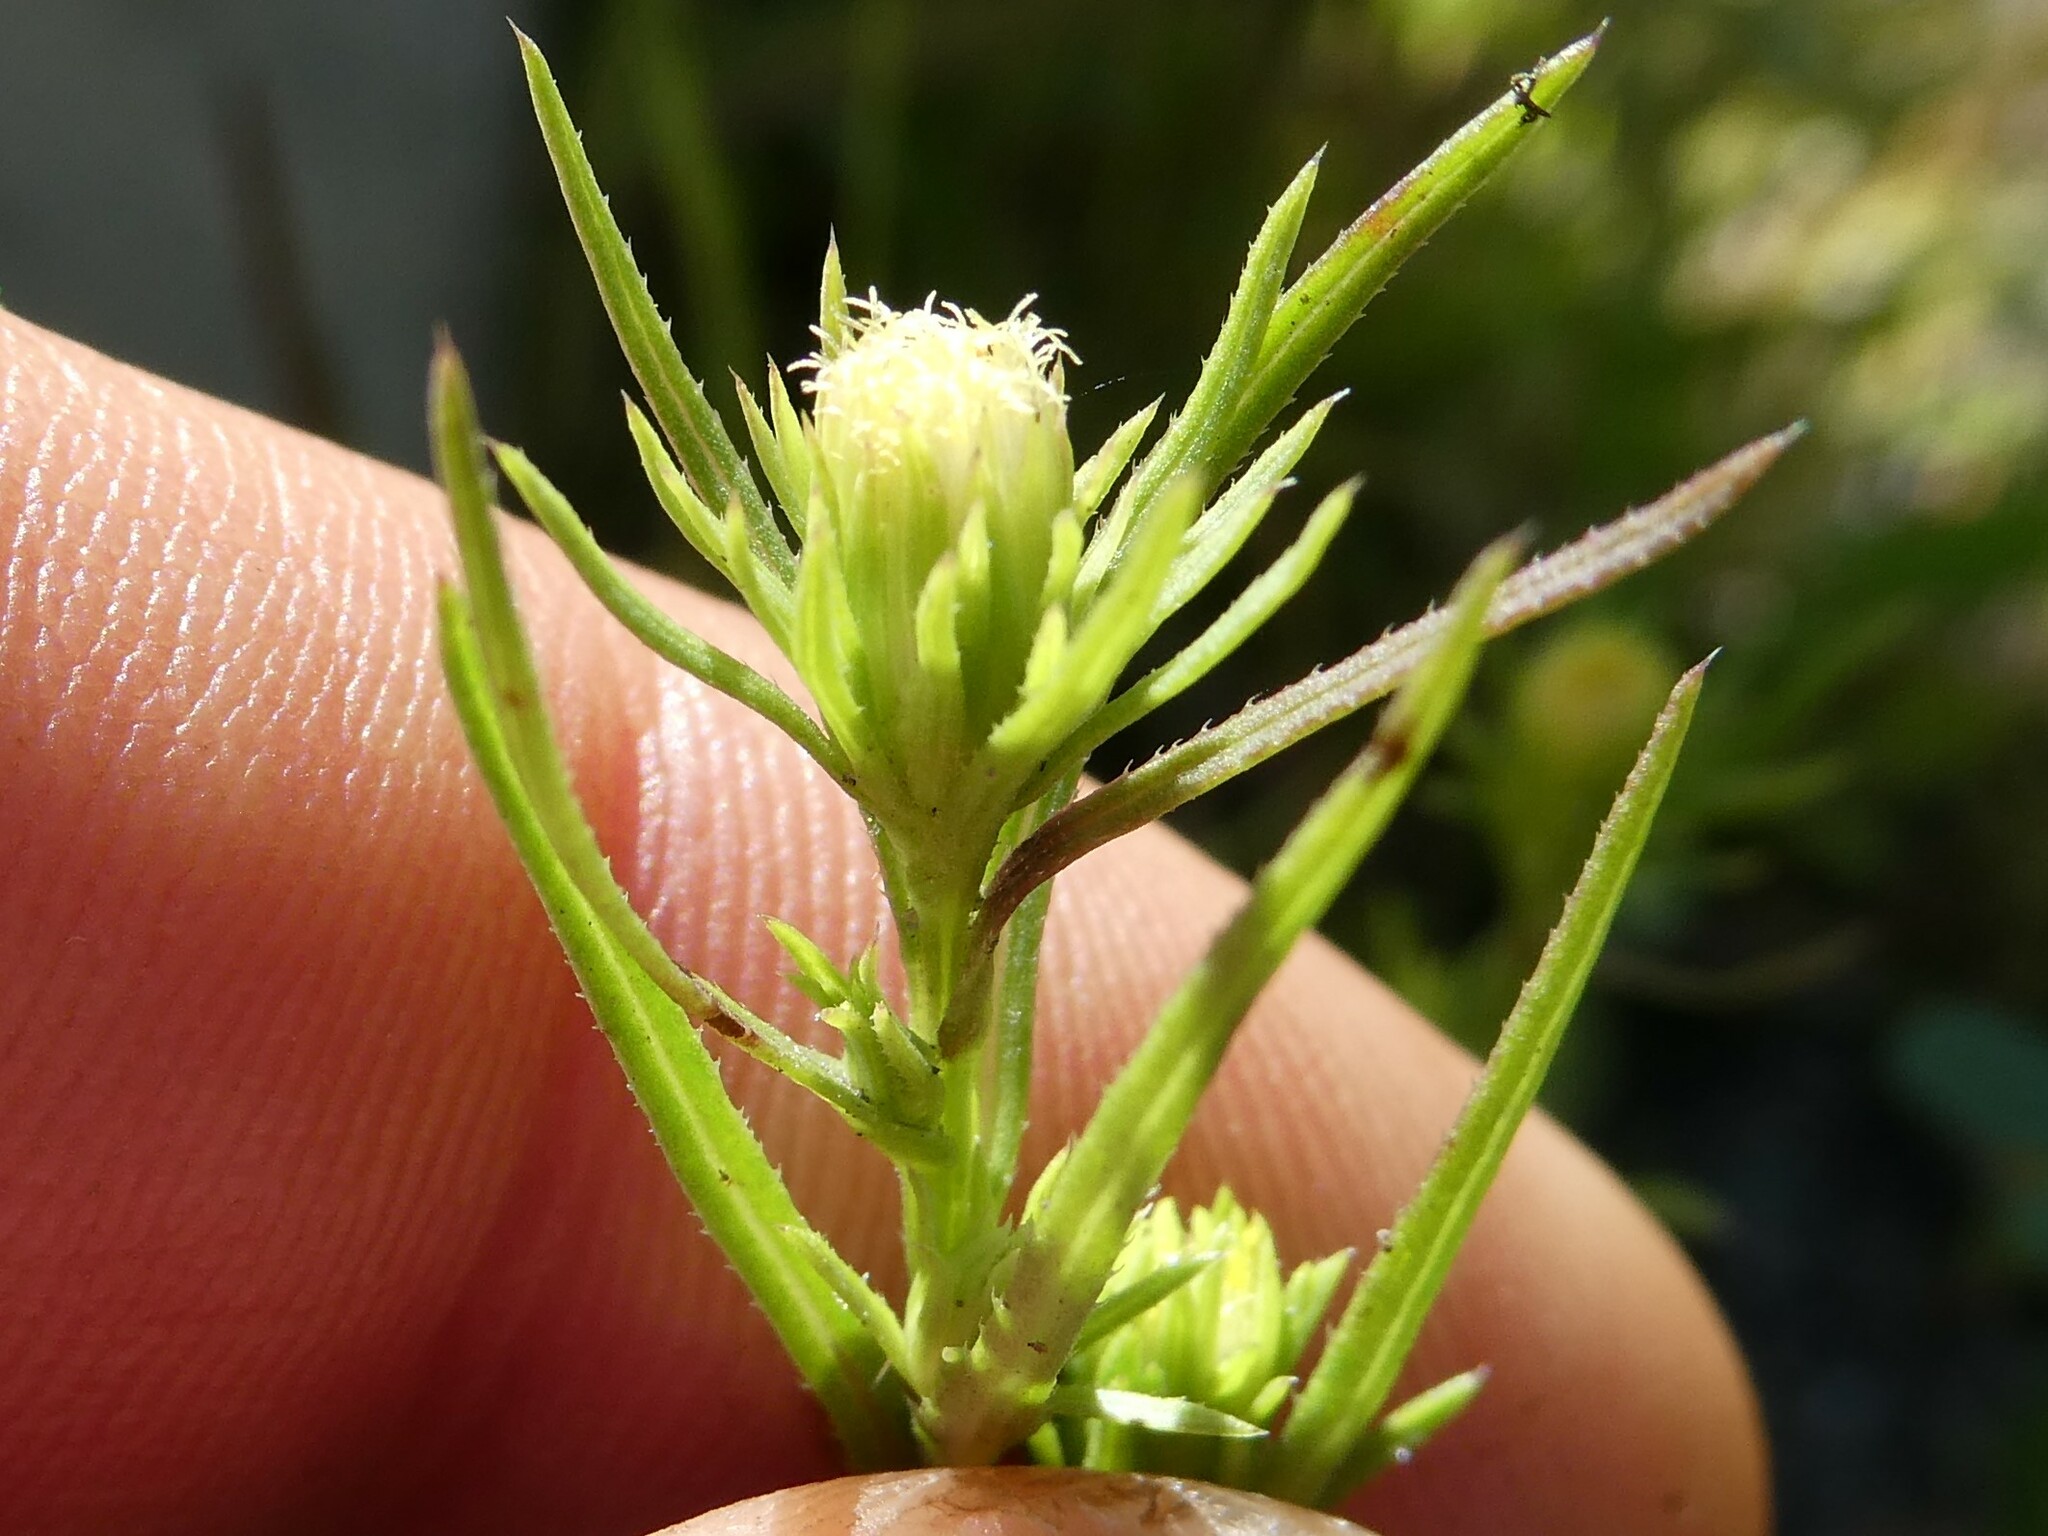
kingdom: Plantae
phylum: Tracheophyta
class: Magnoliopsida
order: Asterales
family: Asteraceae
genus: Symphyotrichum
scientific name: Symphyotrichum ciliatum
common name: Rayless annual aster
